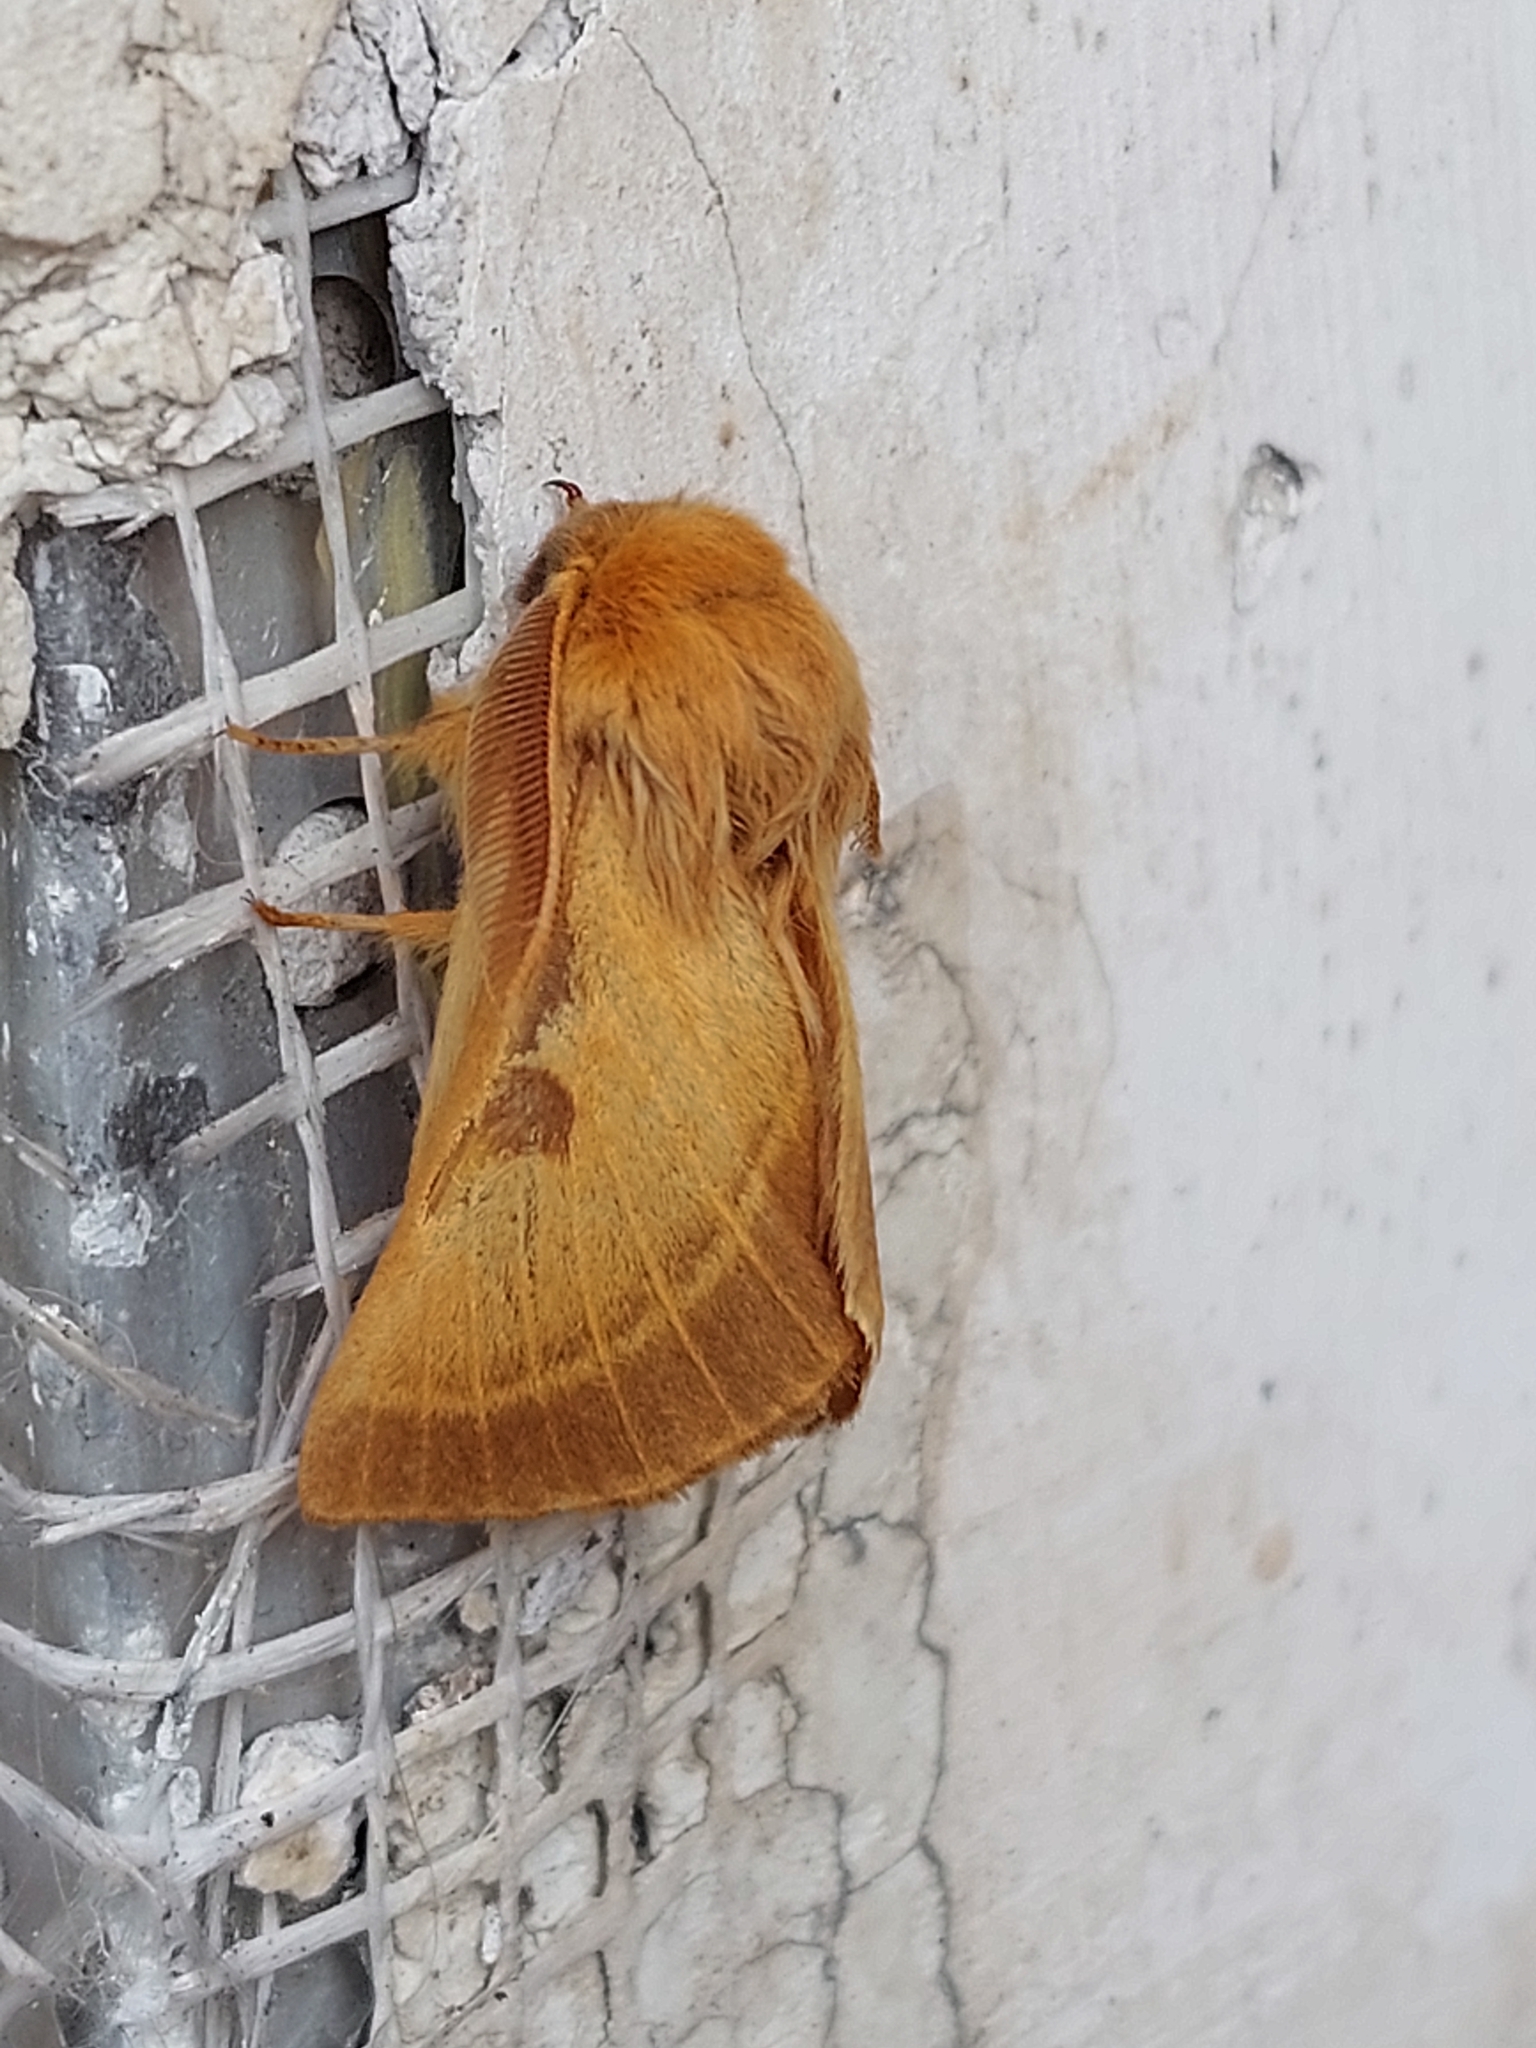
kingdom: Animalia
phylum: Arthropoda
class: Insecta
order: Lepidoptera
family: Brahmaeidae
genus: Lemonia
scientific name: Lemonia balcanica
